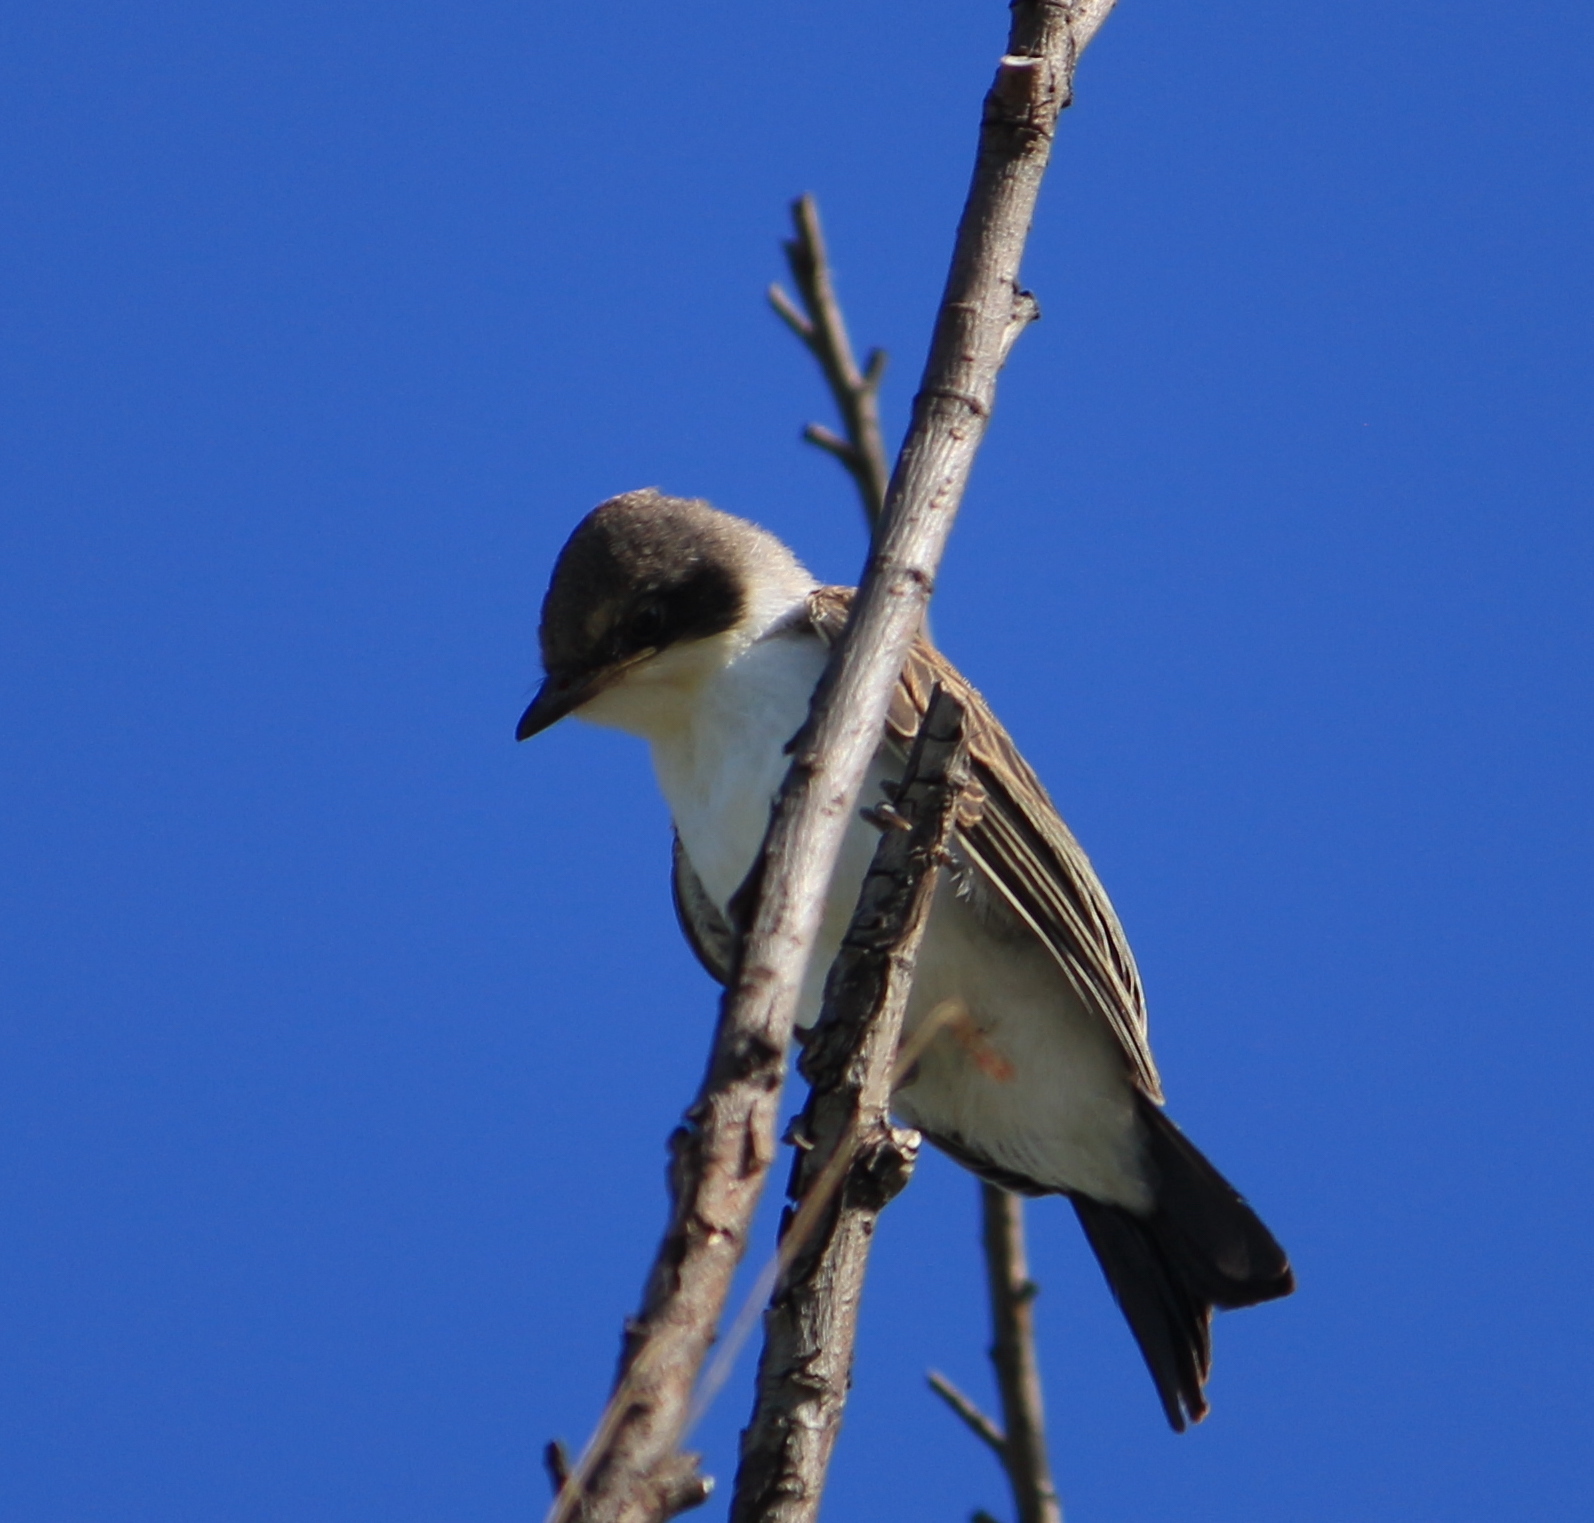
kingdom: Animalia
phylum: Chordata
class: Aves
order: Passeriformes
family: Tyrannidae
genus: Tyrannus
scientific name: Tyrannus savana
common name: Fork-tailed flycatcher
